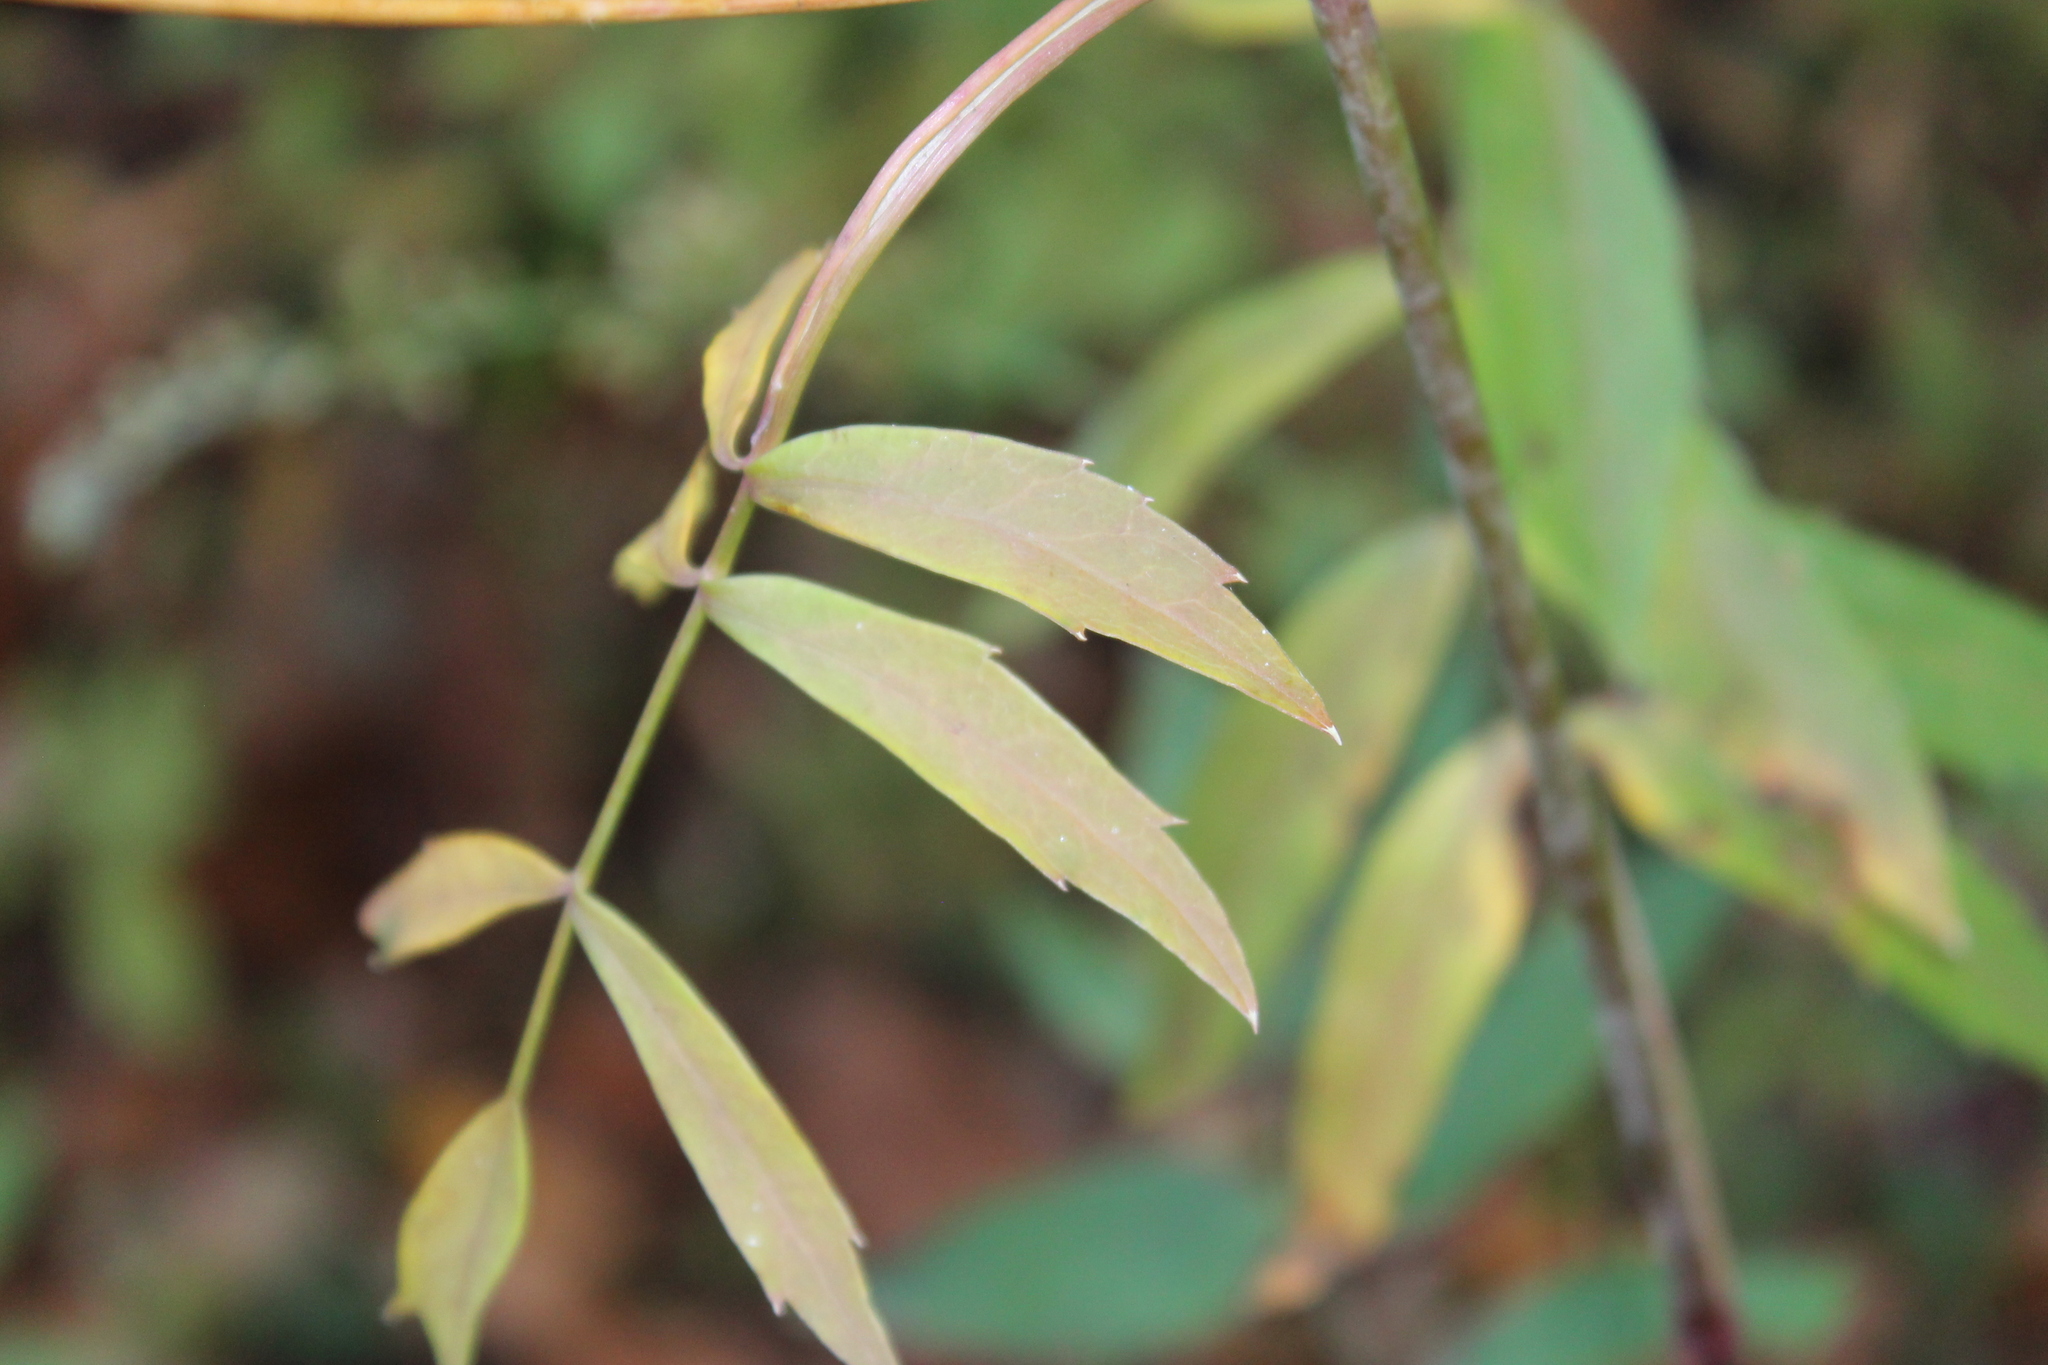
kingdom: Plantae
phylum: Tracheophyta
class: Magnoliopsida
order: Apiales
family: Apiaceae
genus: Oxypolis
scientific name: Oxypolis rigidior
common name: Cowbane
